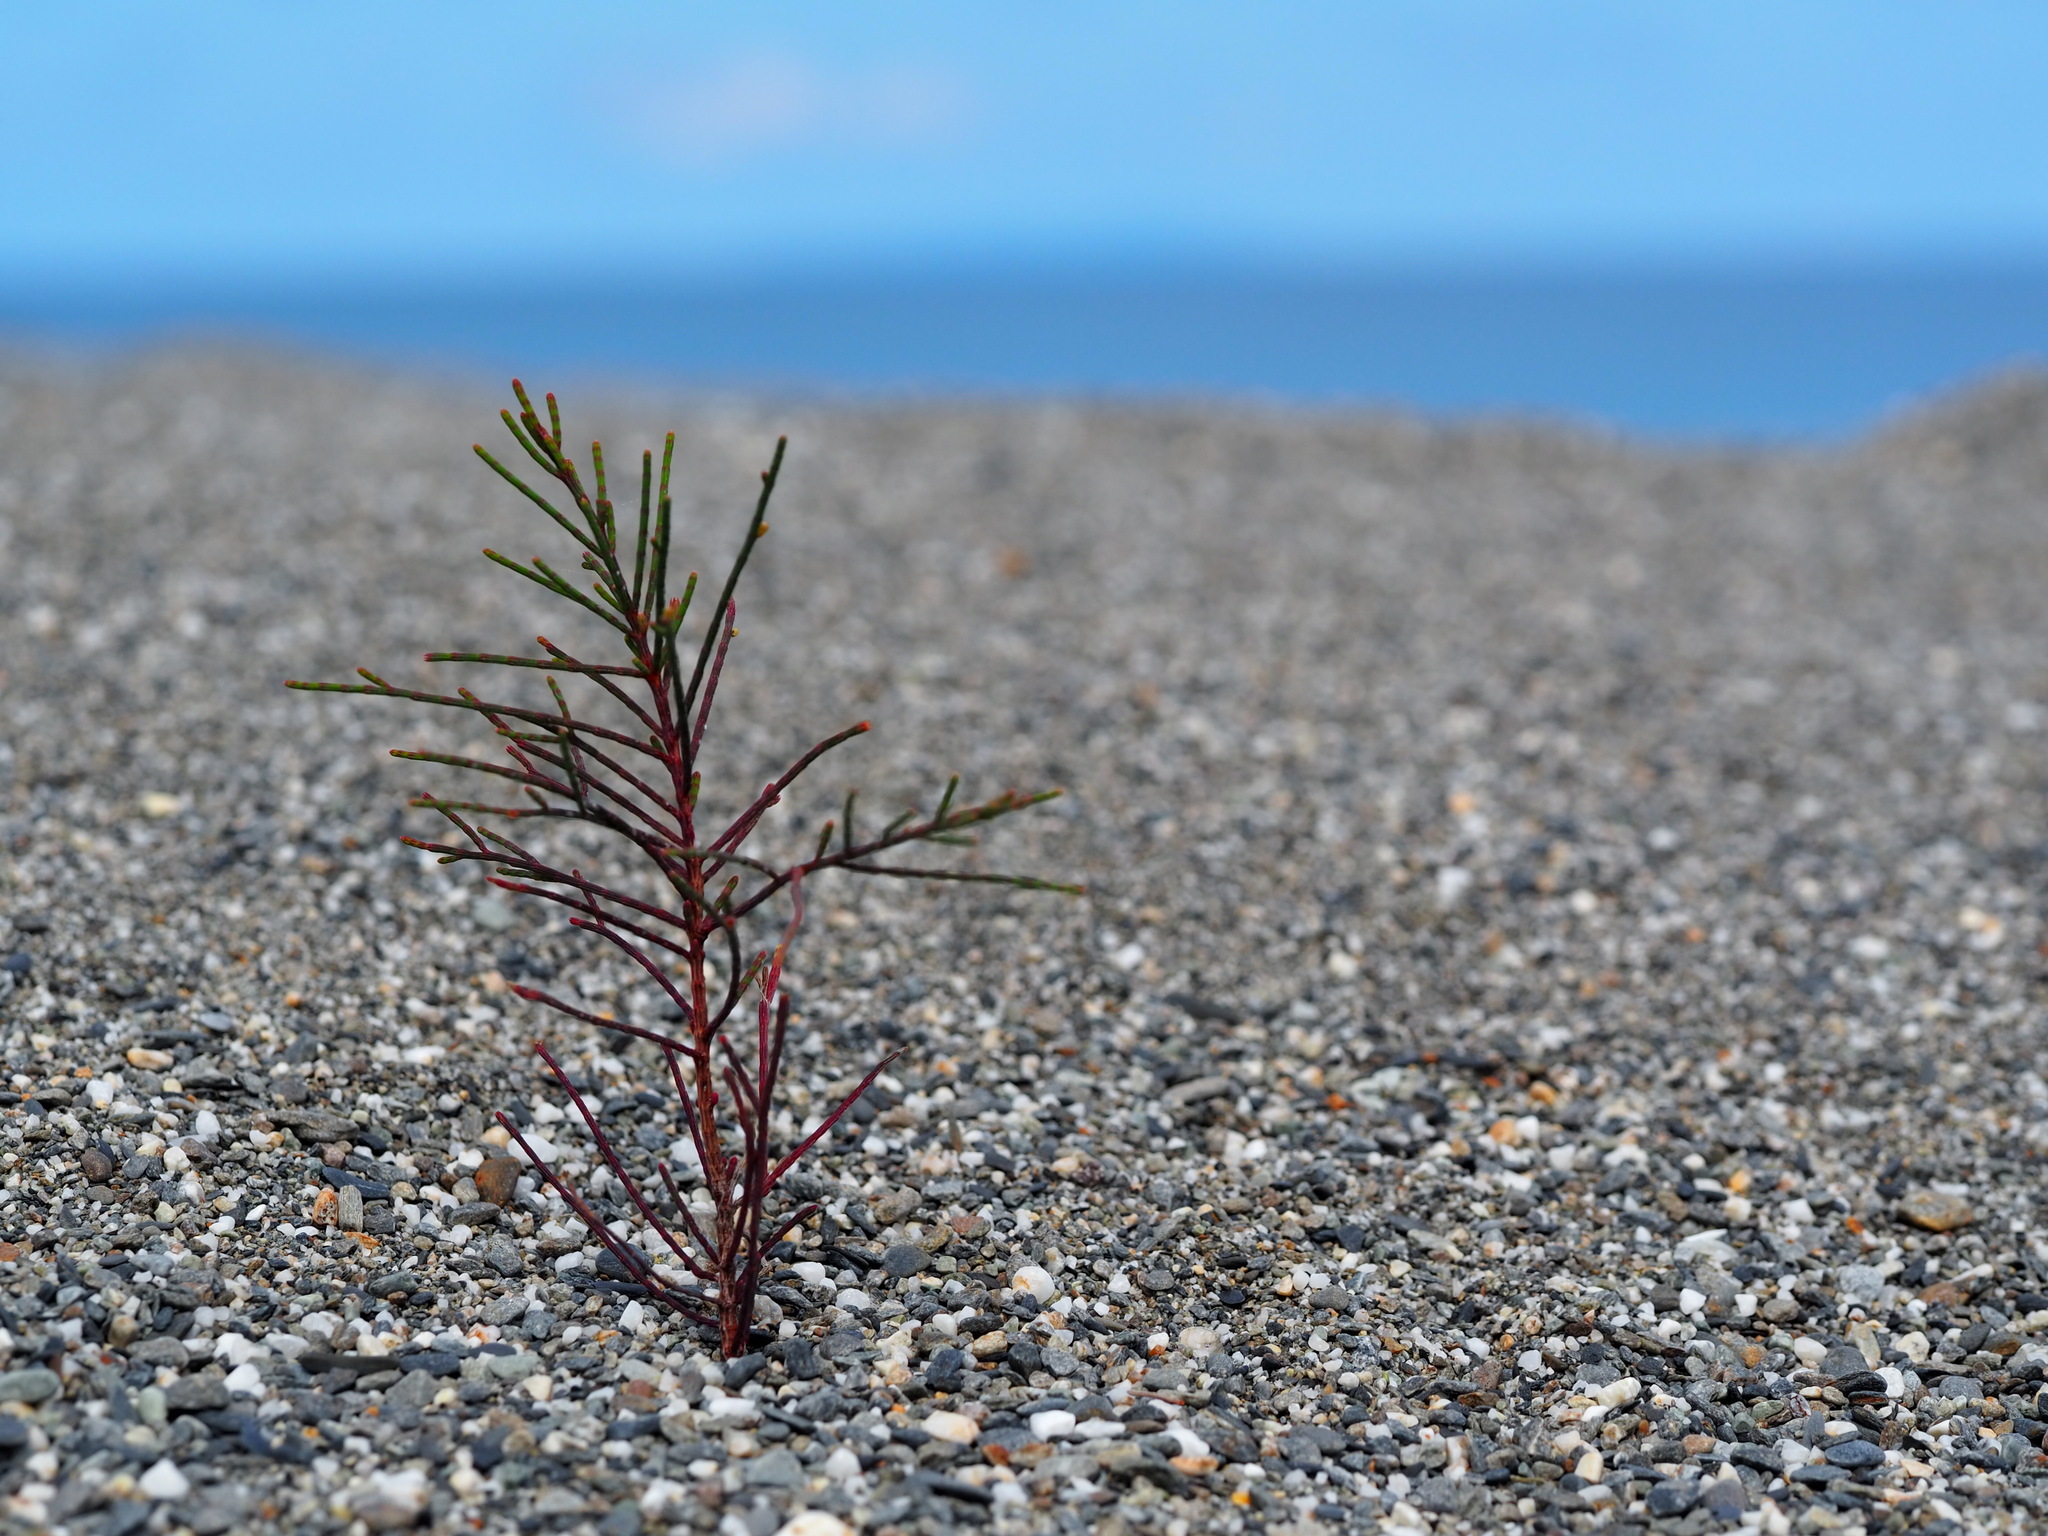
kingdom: Plantae
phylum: Tracheophyta
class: Magnoliopsida
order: Fagales
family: Casuarinaceae
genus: Casuarina
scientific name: Casuarina equisetifolia
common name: Beach sheoak
